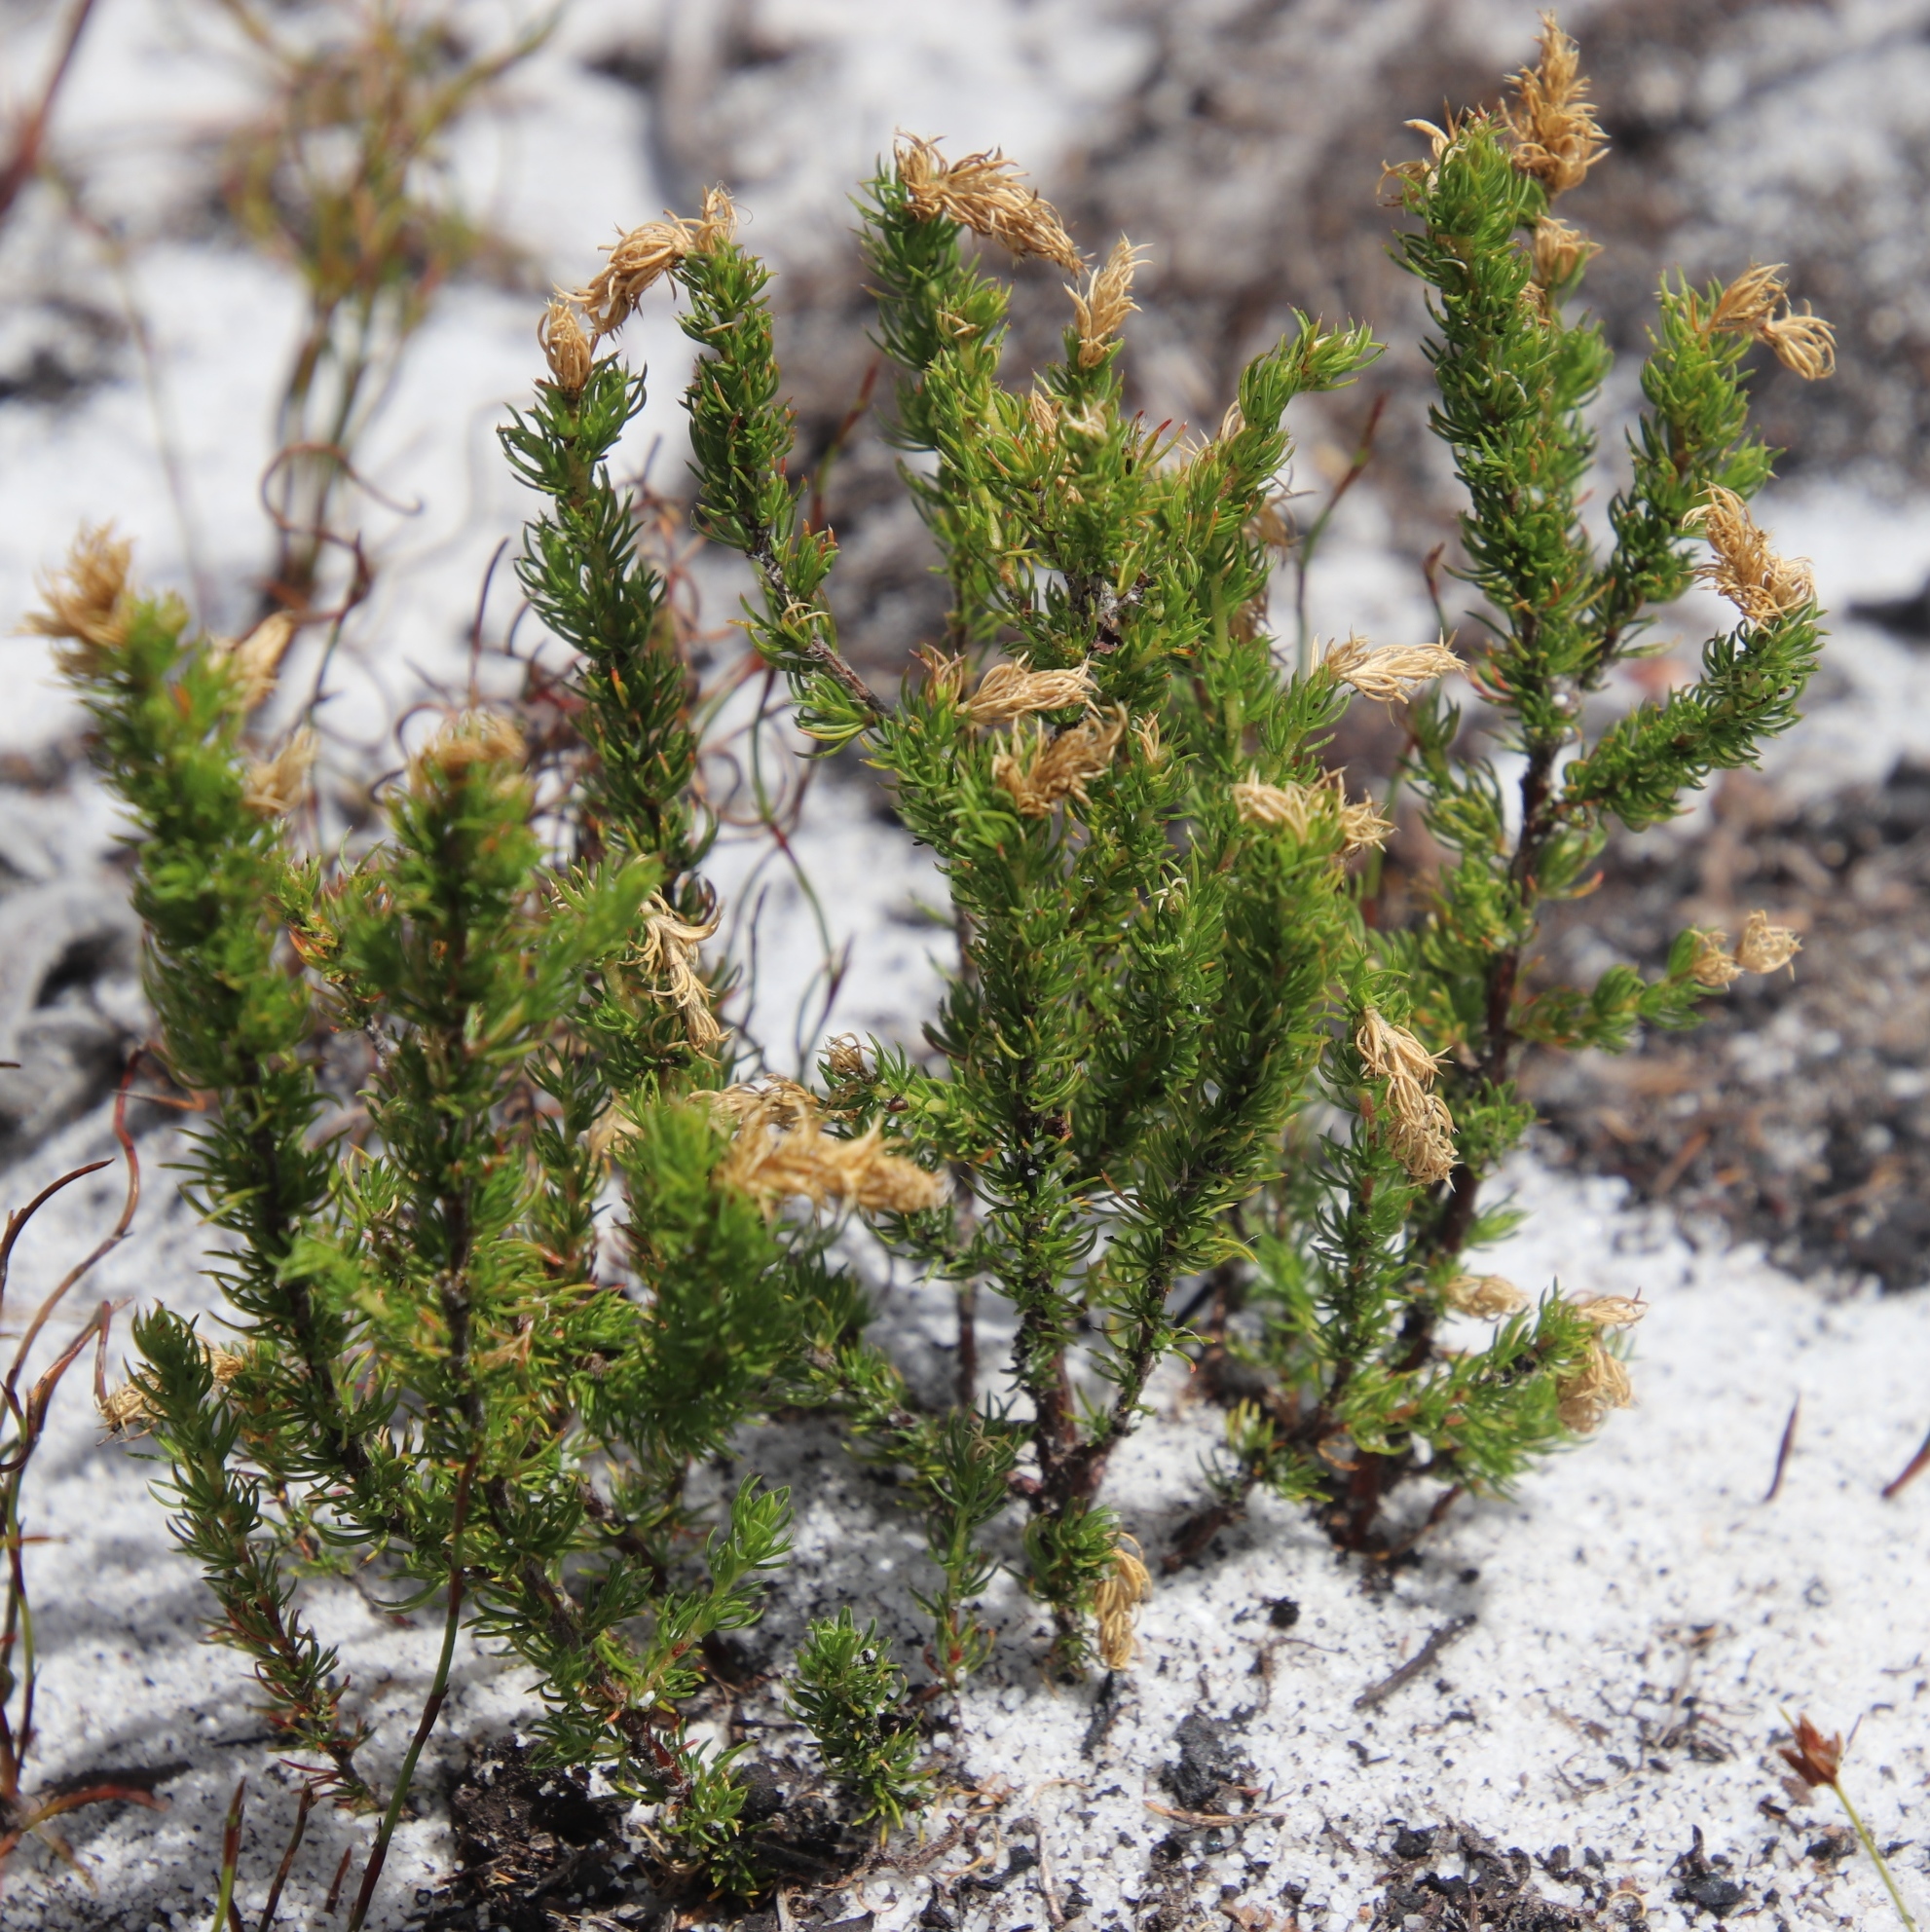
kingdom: Plantae
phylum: Tracheophyta
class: Magnoliopsida
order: Rosales
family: Rosaceae
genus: Cliffortia
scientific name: Cliffortia subsetacea
